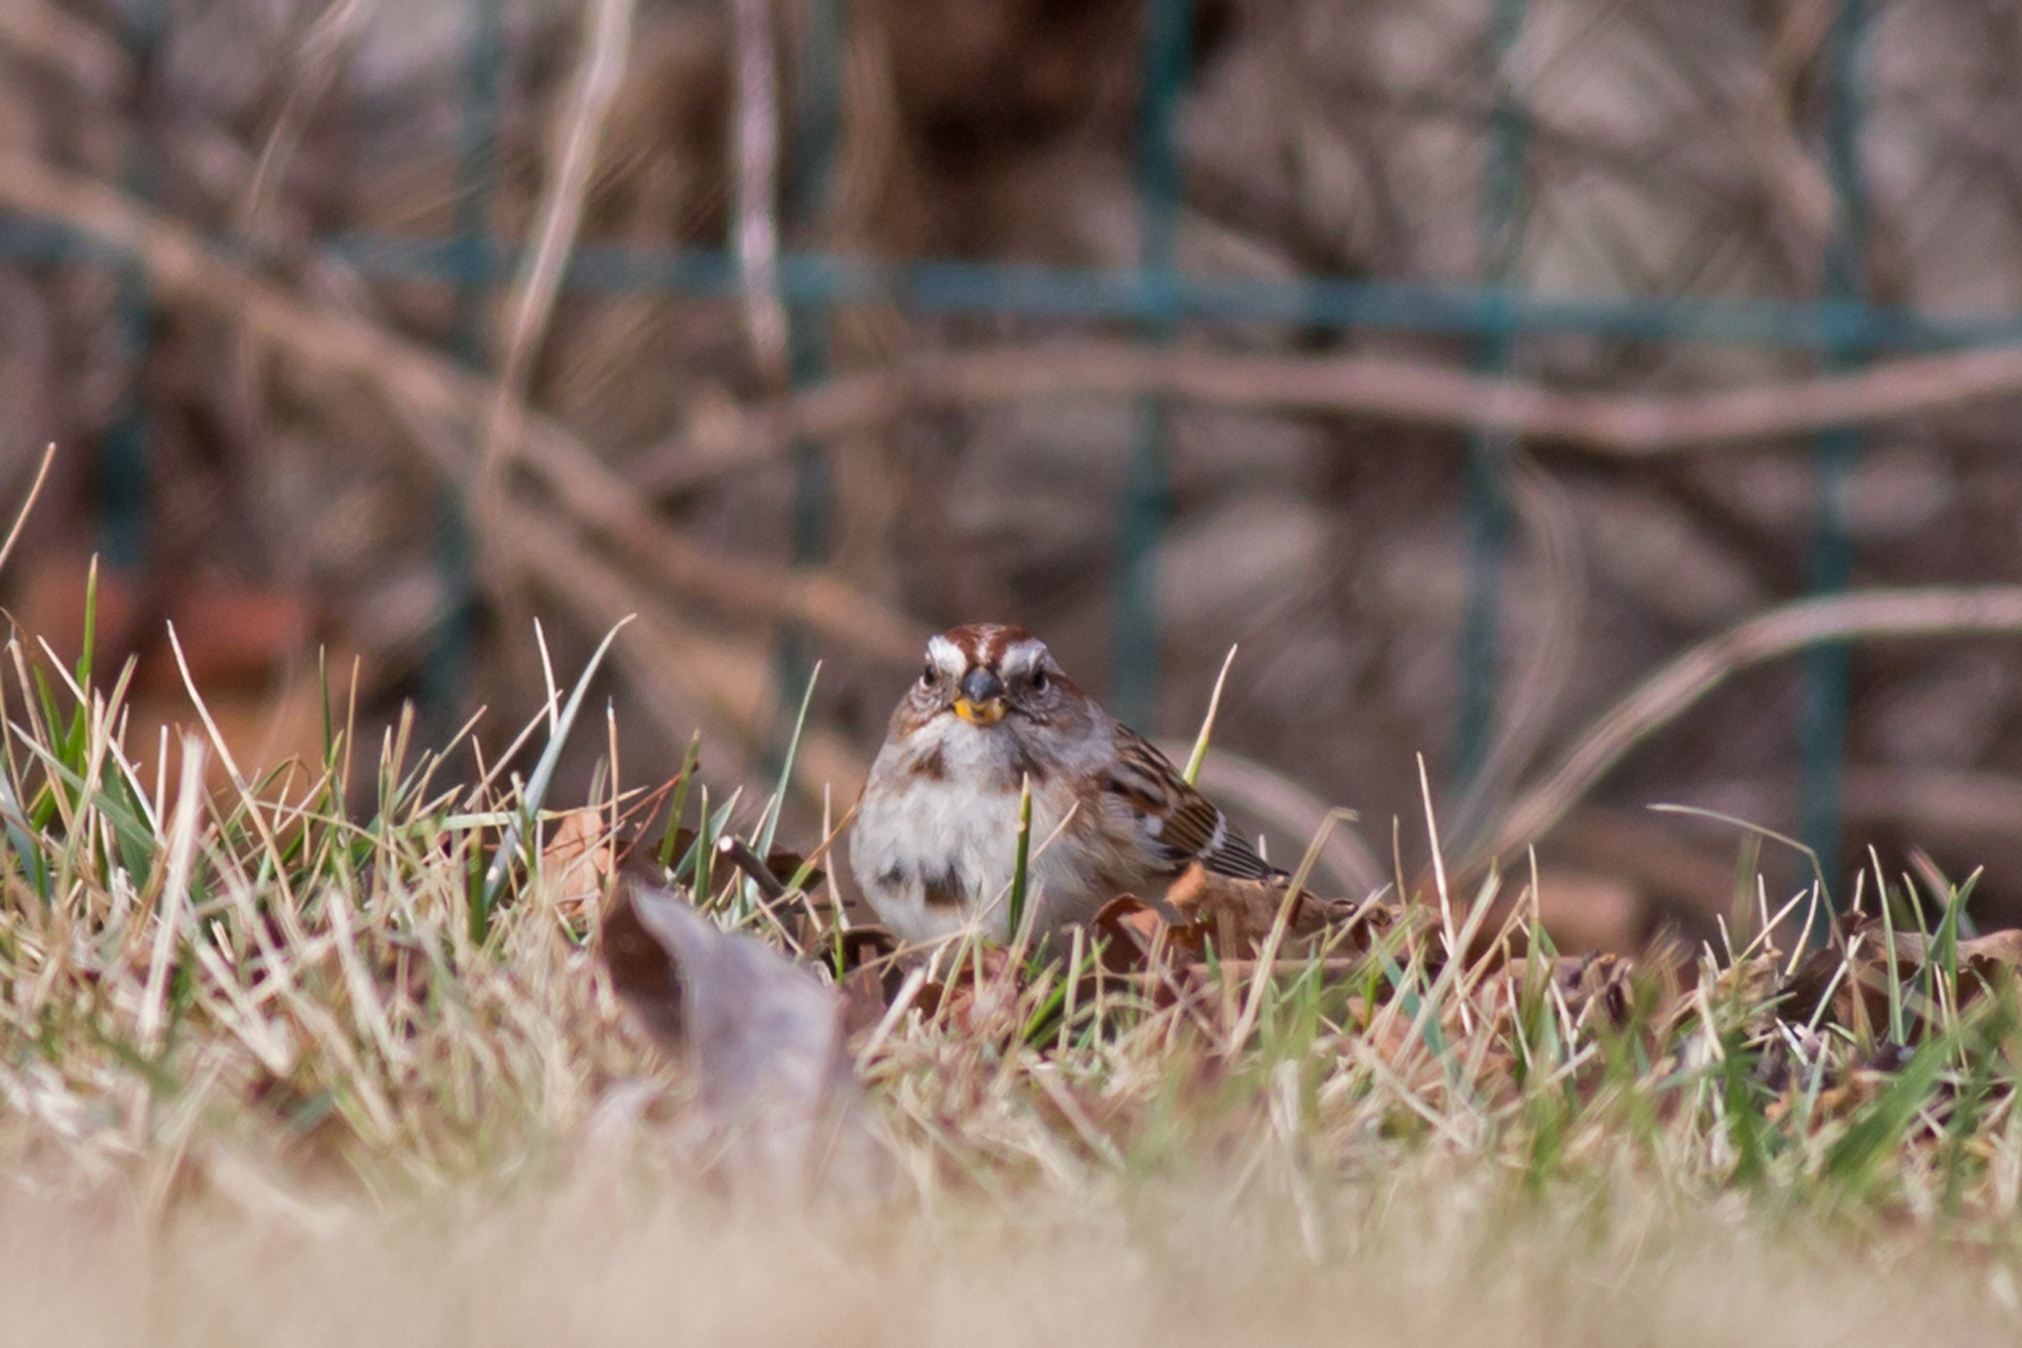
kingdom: Animalia
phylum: Chordata
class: Aves
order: Passeriformes
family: Passerellidae
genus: Spizelloides
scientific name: Spizelloides arborea
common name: American tree sparrow
